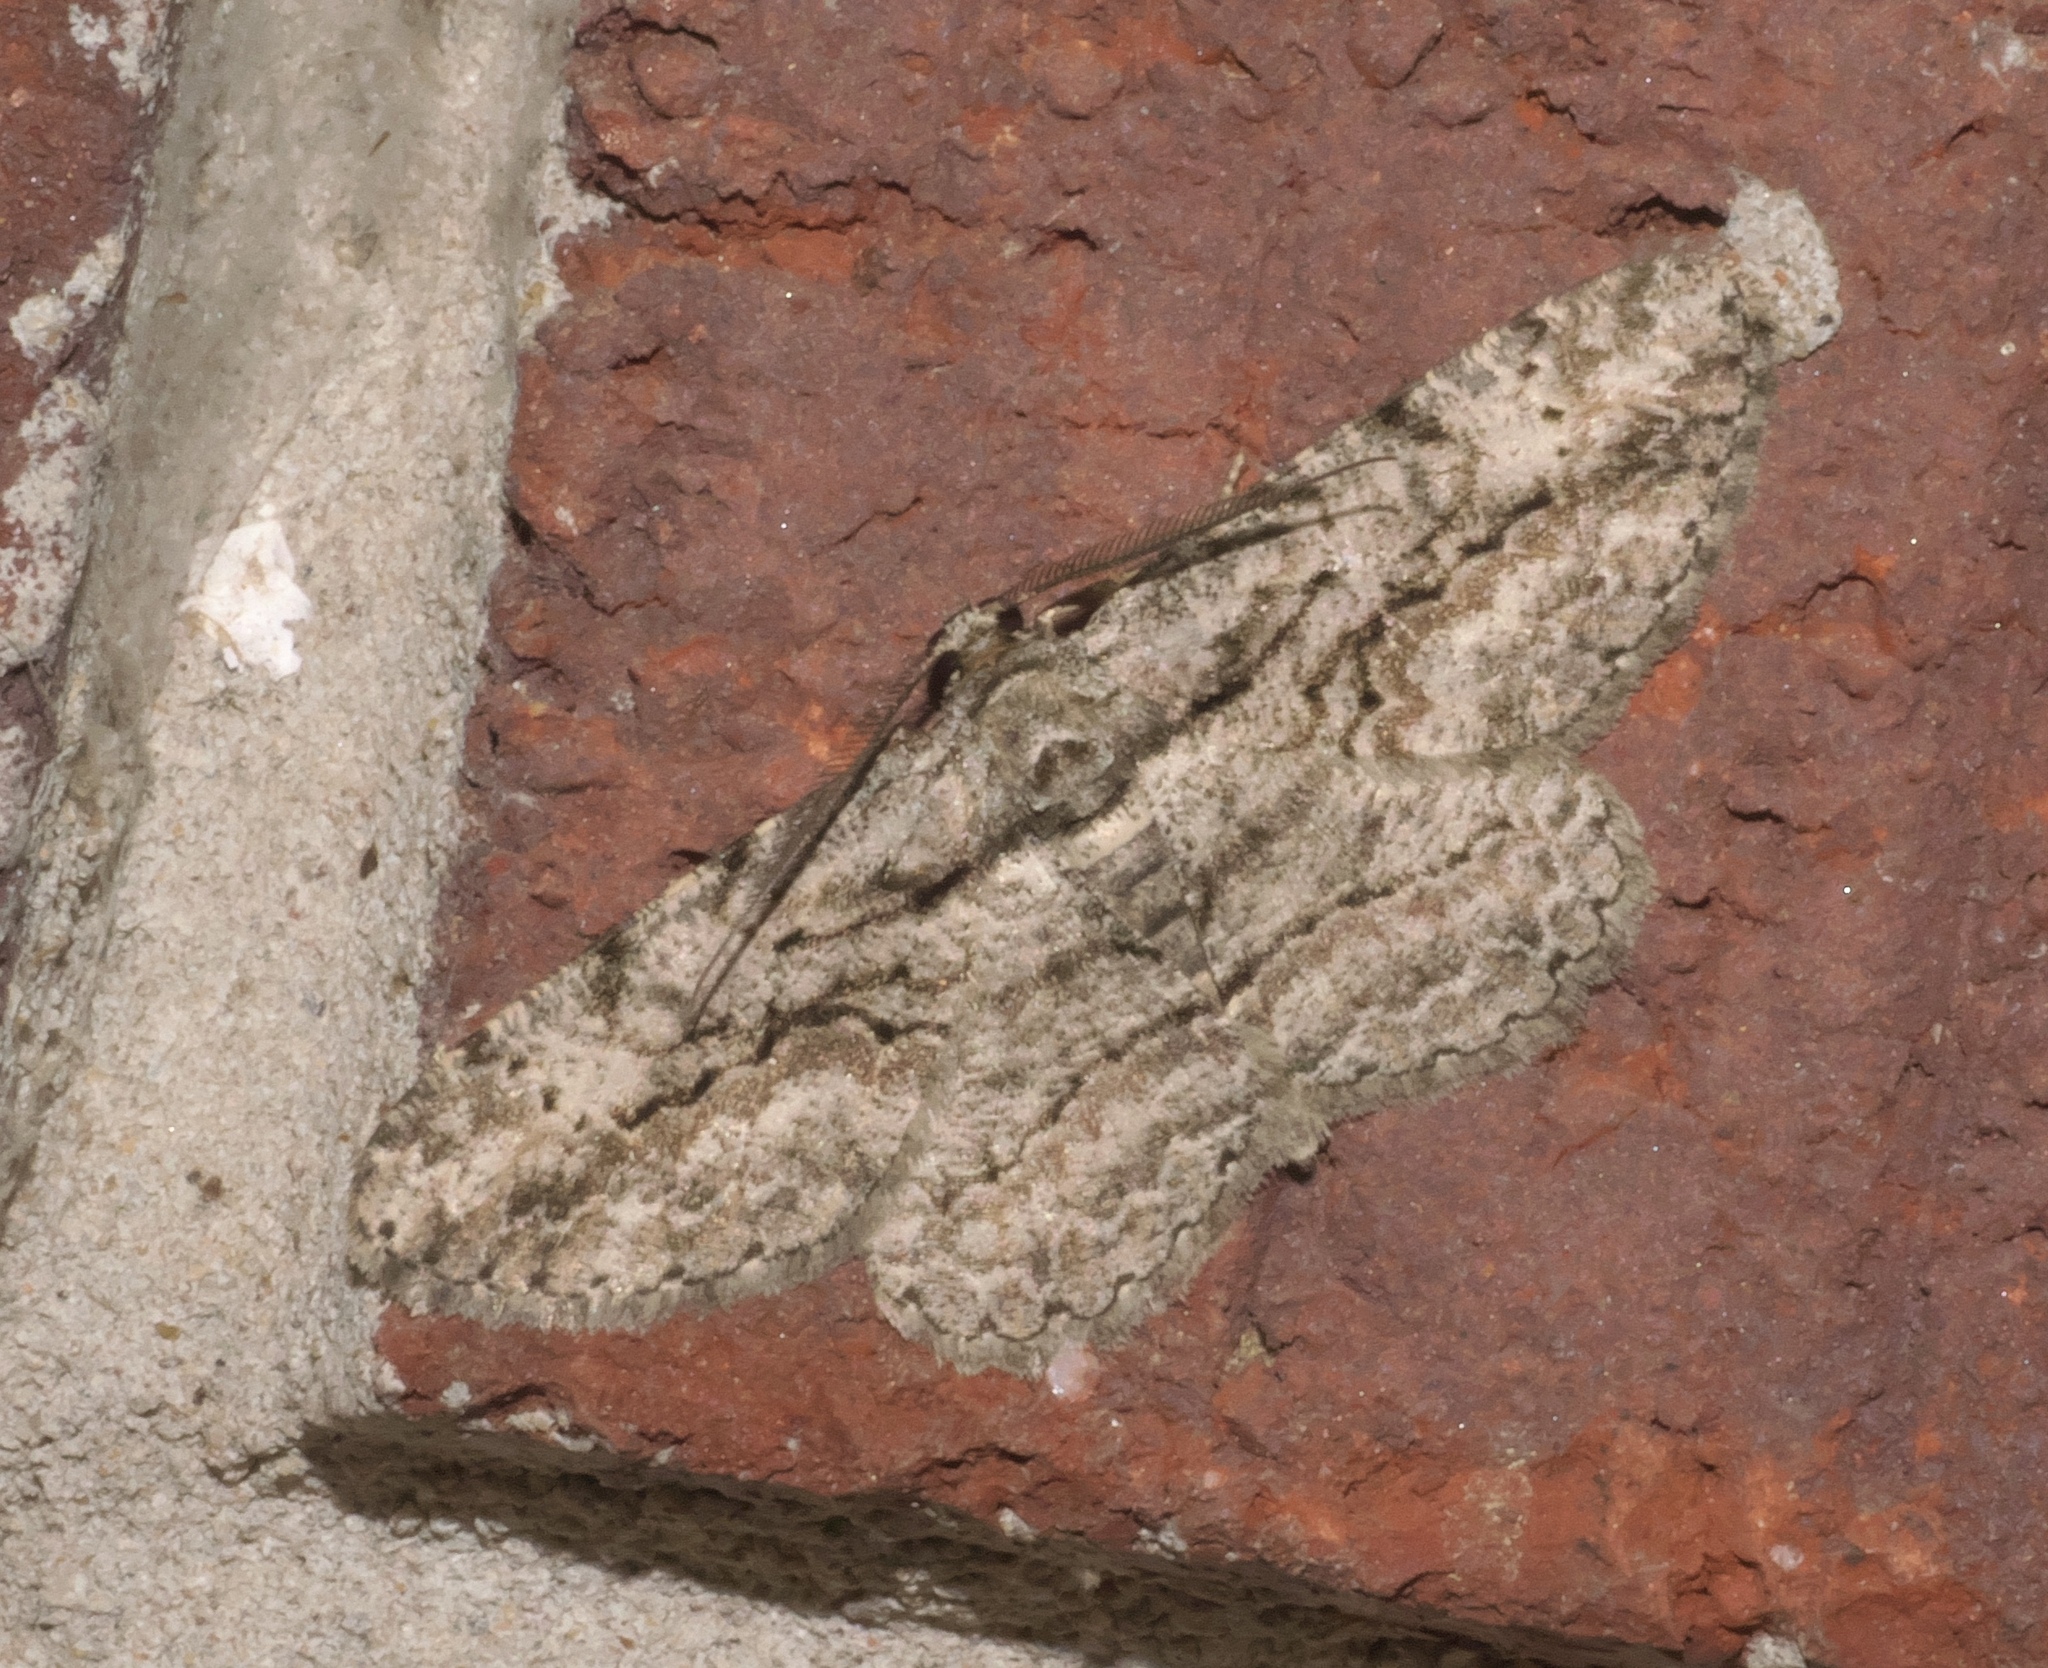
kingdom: Animalia
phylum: Arthropoda
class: Insecta
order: Lepidoptera
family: Geometridae
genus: Anavitrinella
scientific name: Anavitrinella pampinaria
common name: Common gray
